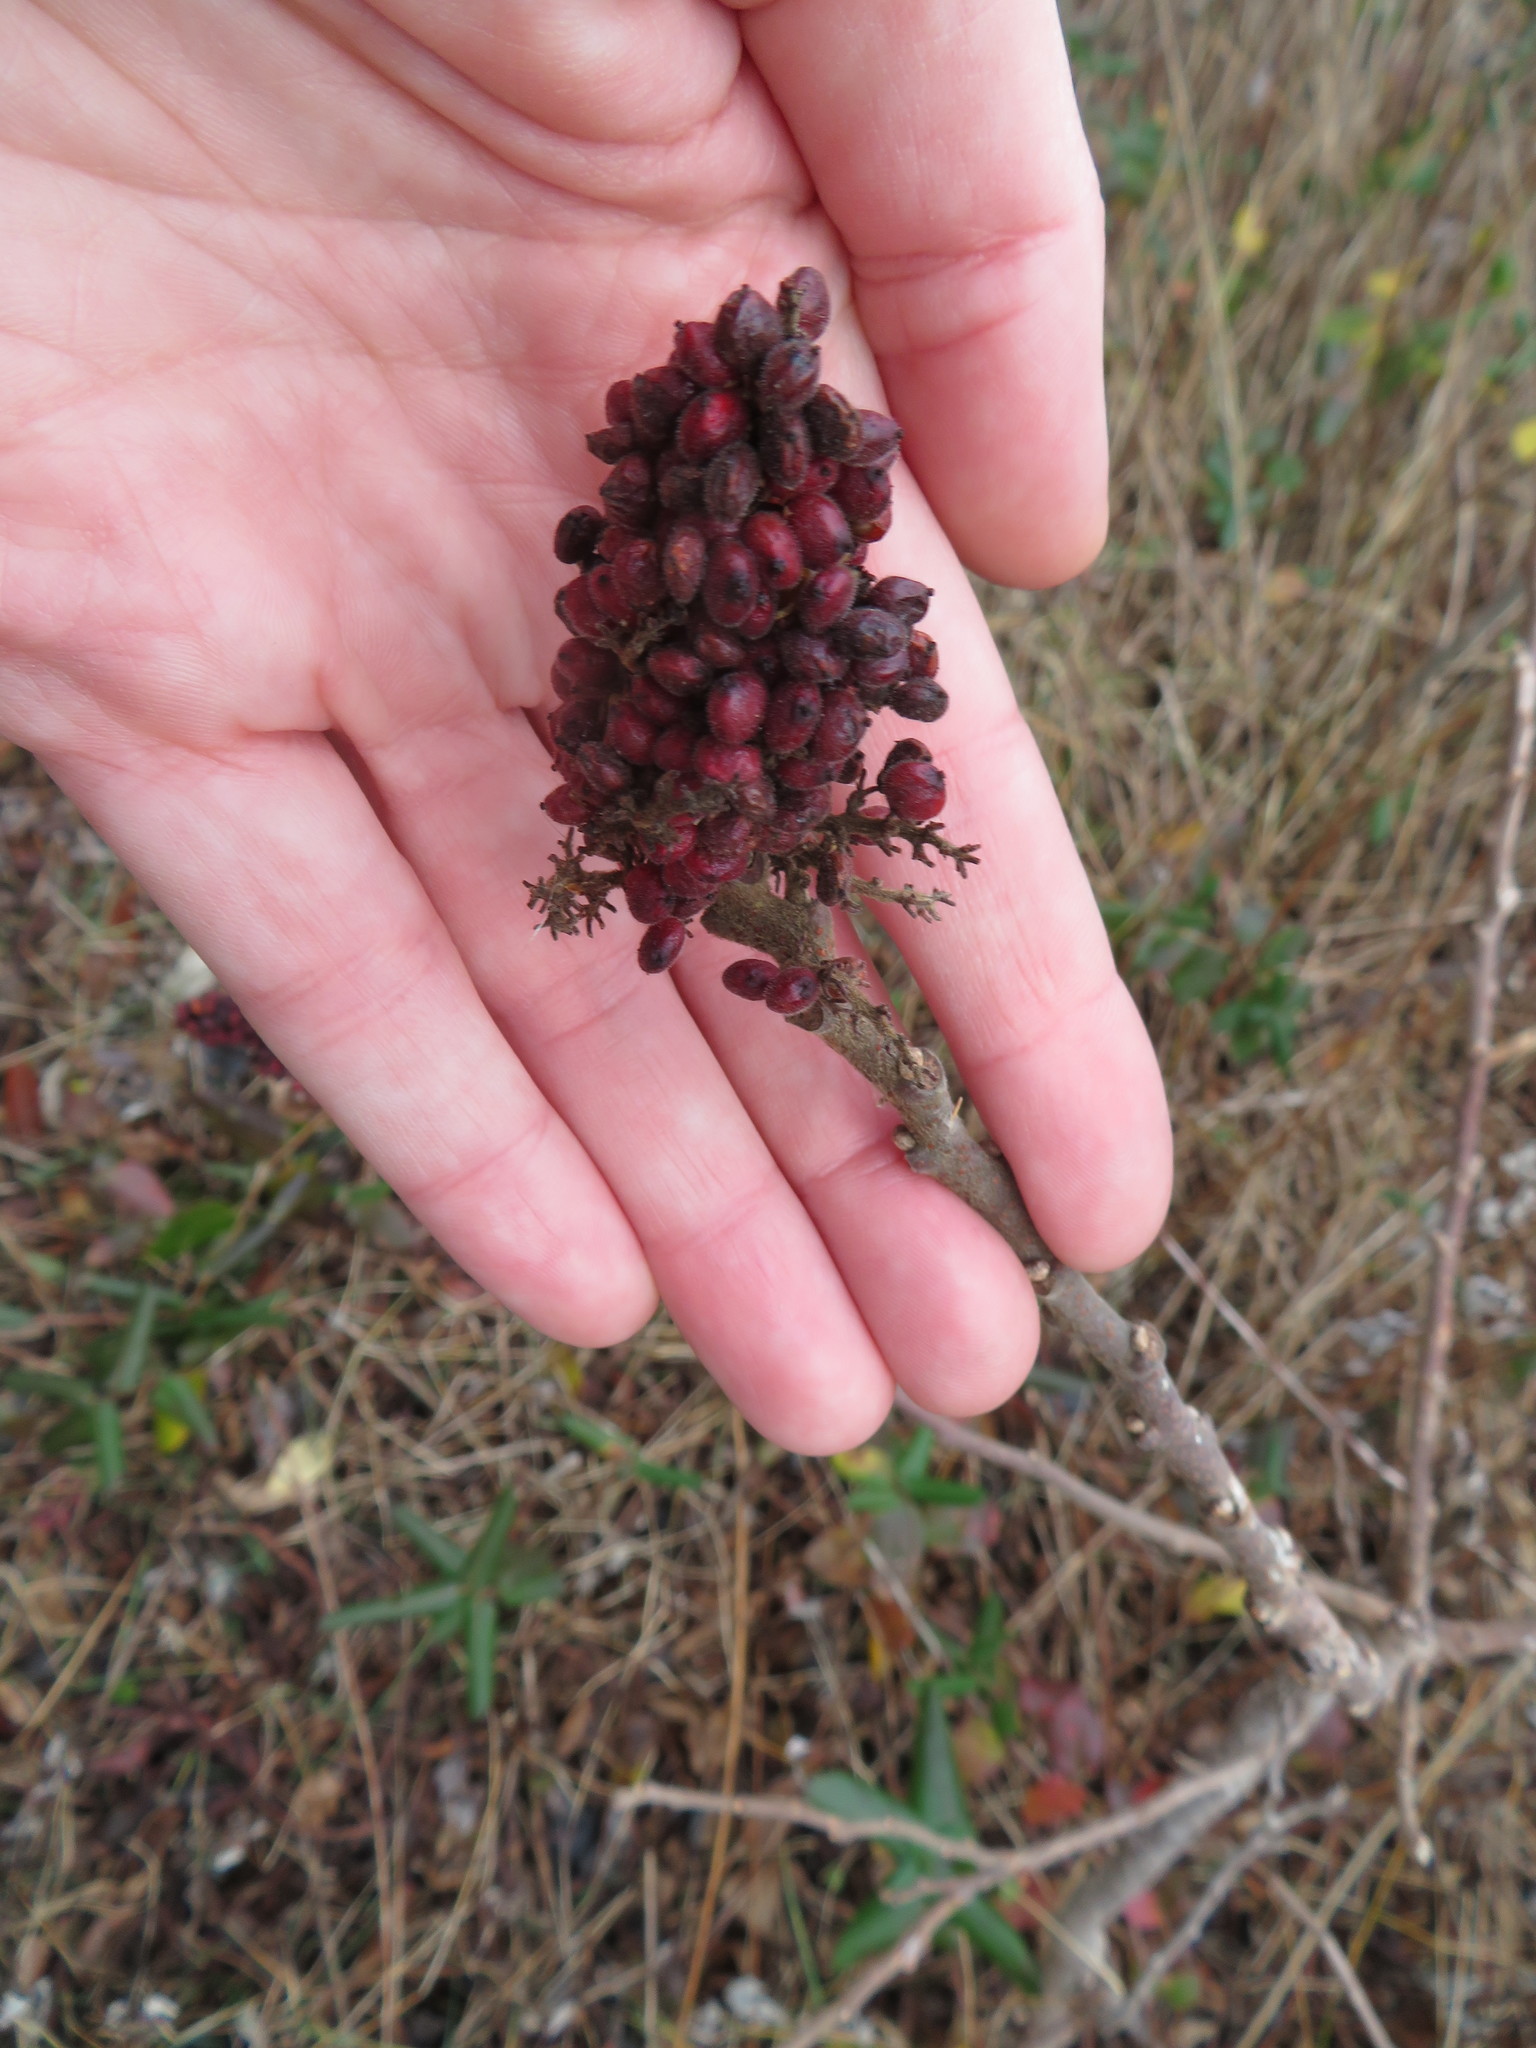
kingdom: Plantae
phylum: Tracheophyta
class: Magnoliopsida
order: Sapindales
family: Anacardiaceae
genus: Rhus
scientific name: Rhus copallina
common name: Shining sumac
